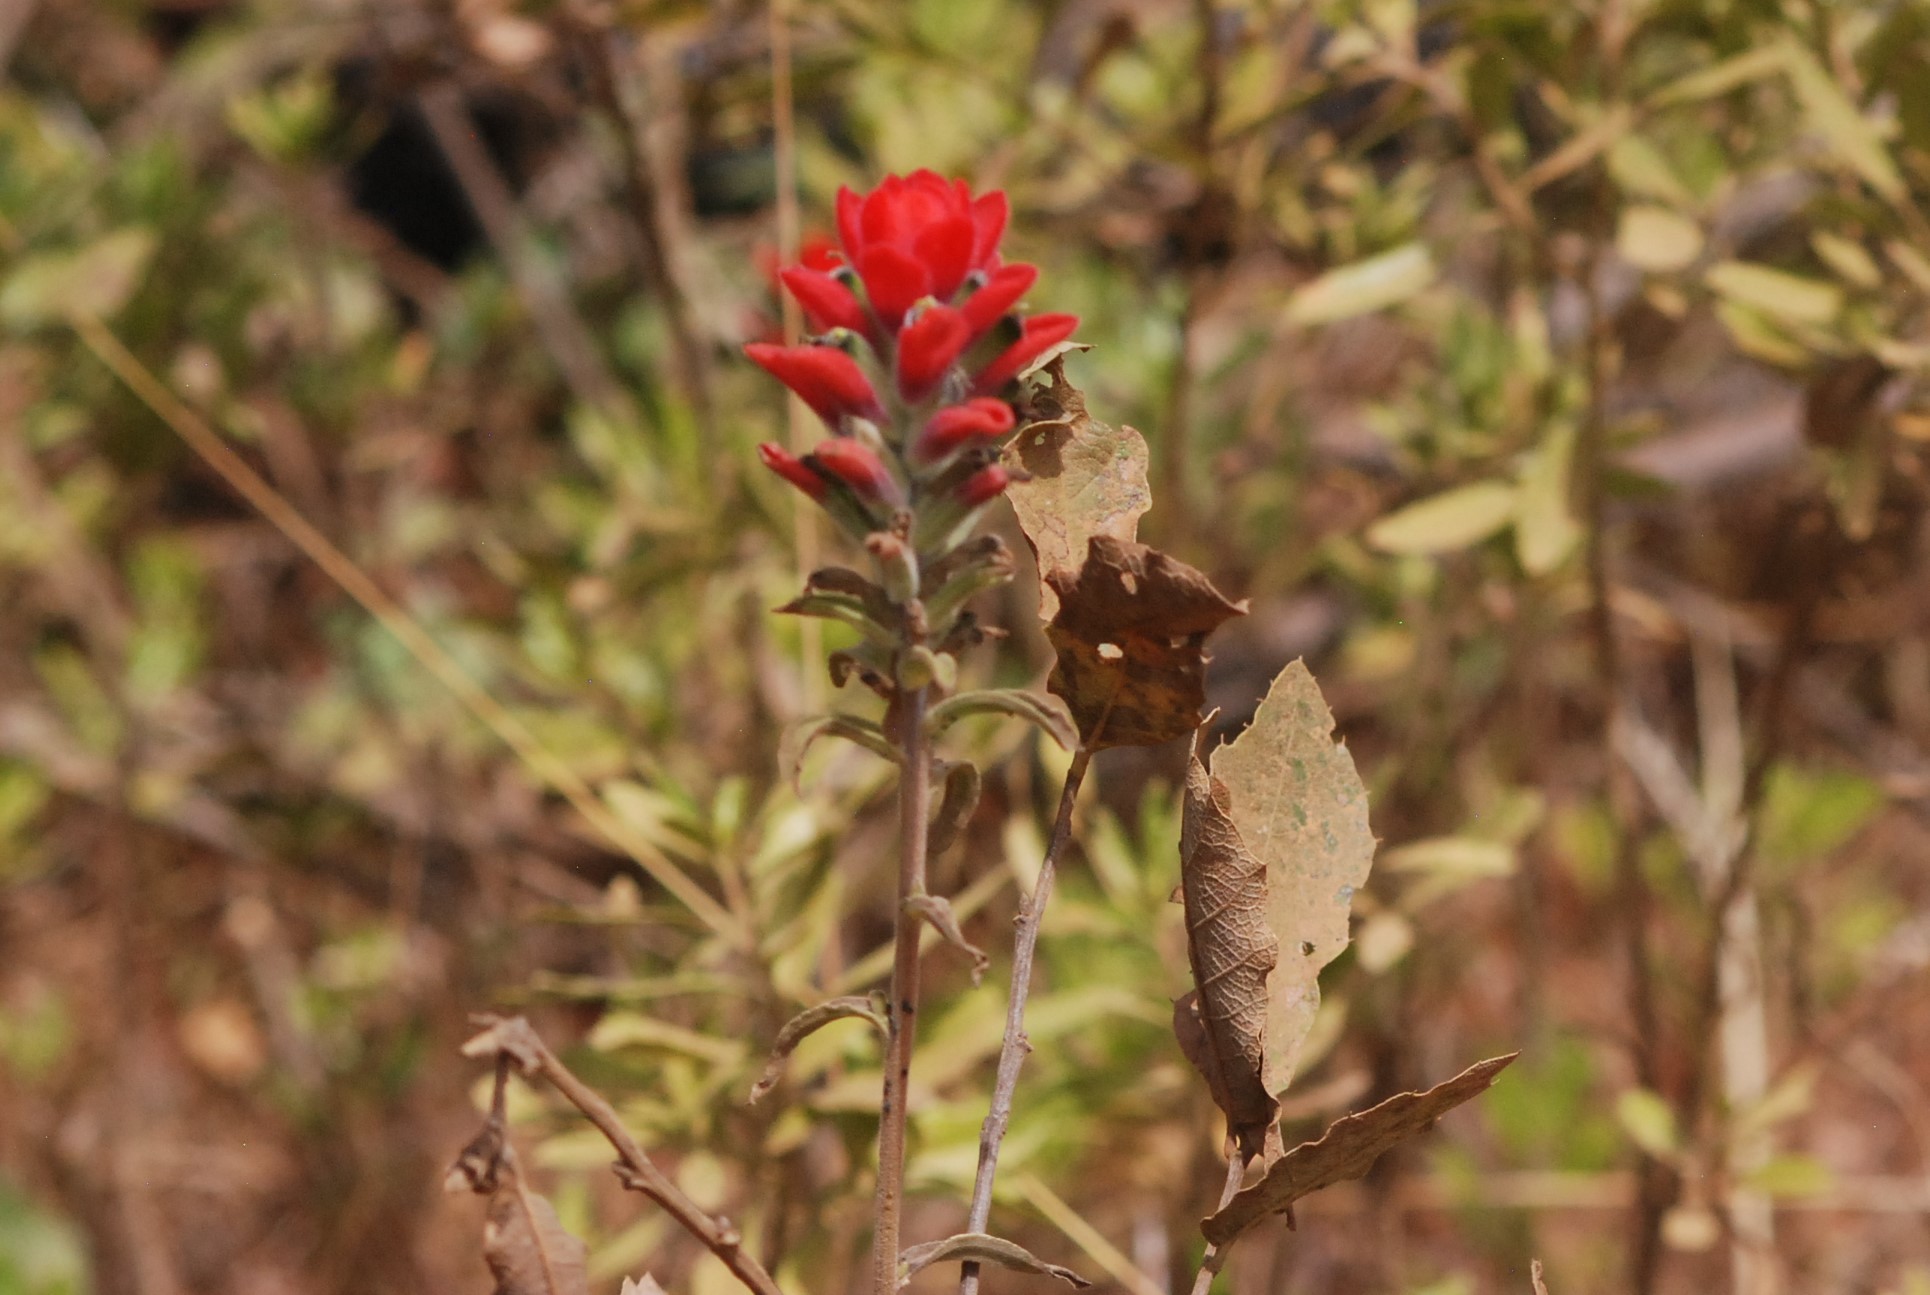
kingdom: Plantae
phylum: Tracheophyta
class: Magnoliopsida
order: Lamiales
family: Orobanchaceae
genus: Castilleja
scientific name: Castilleja arvensis
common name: Indian paintbrush
